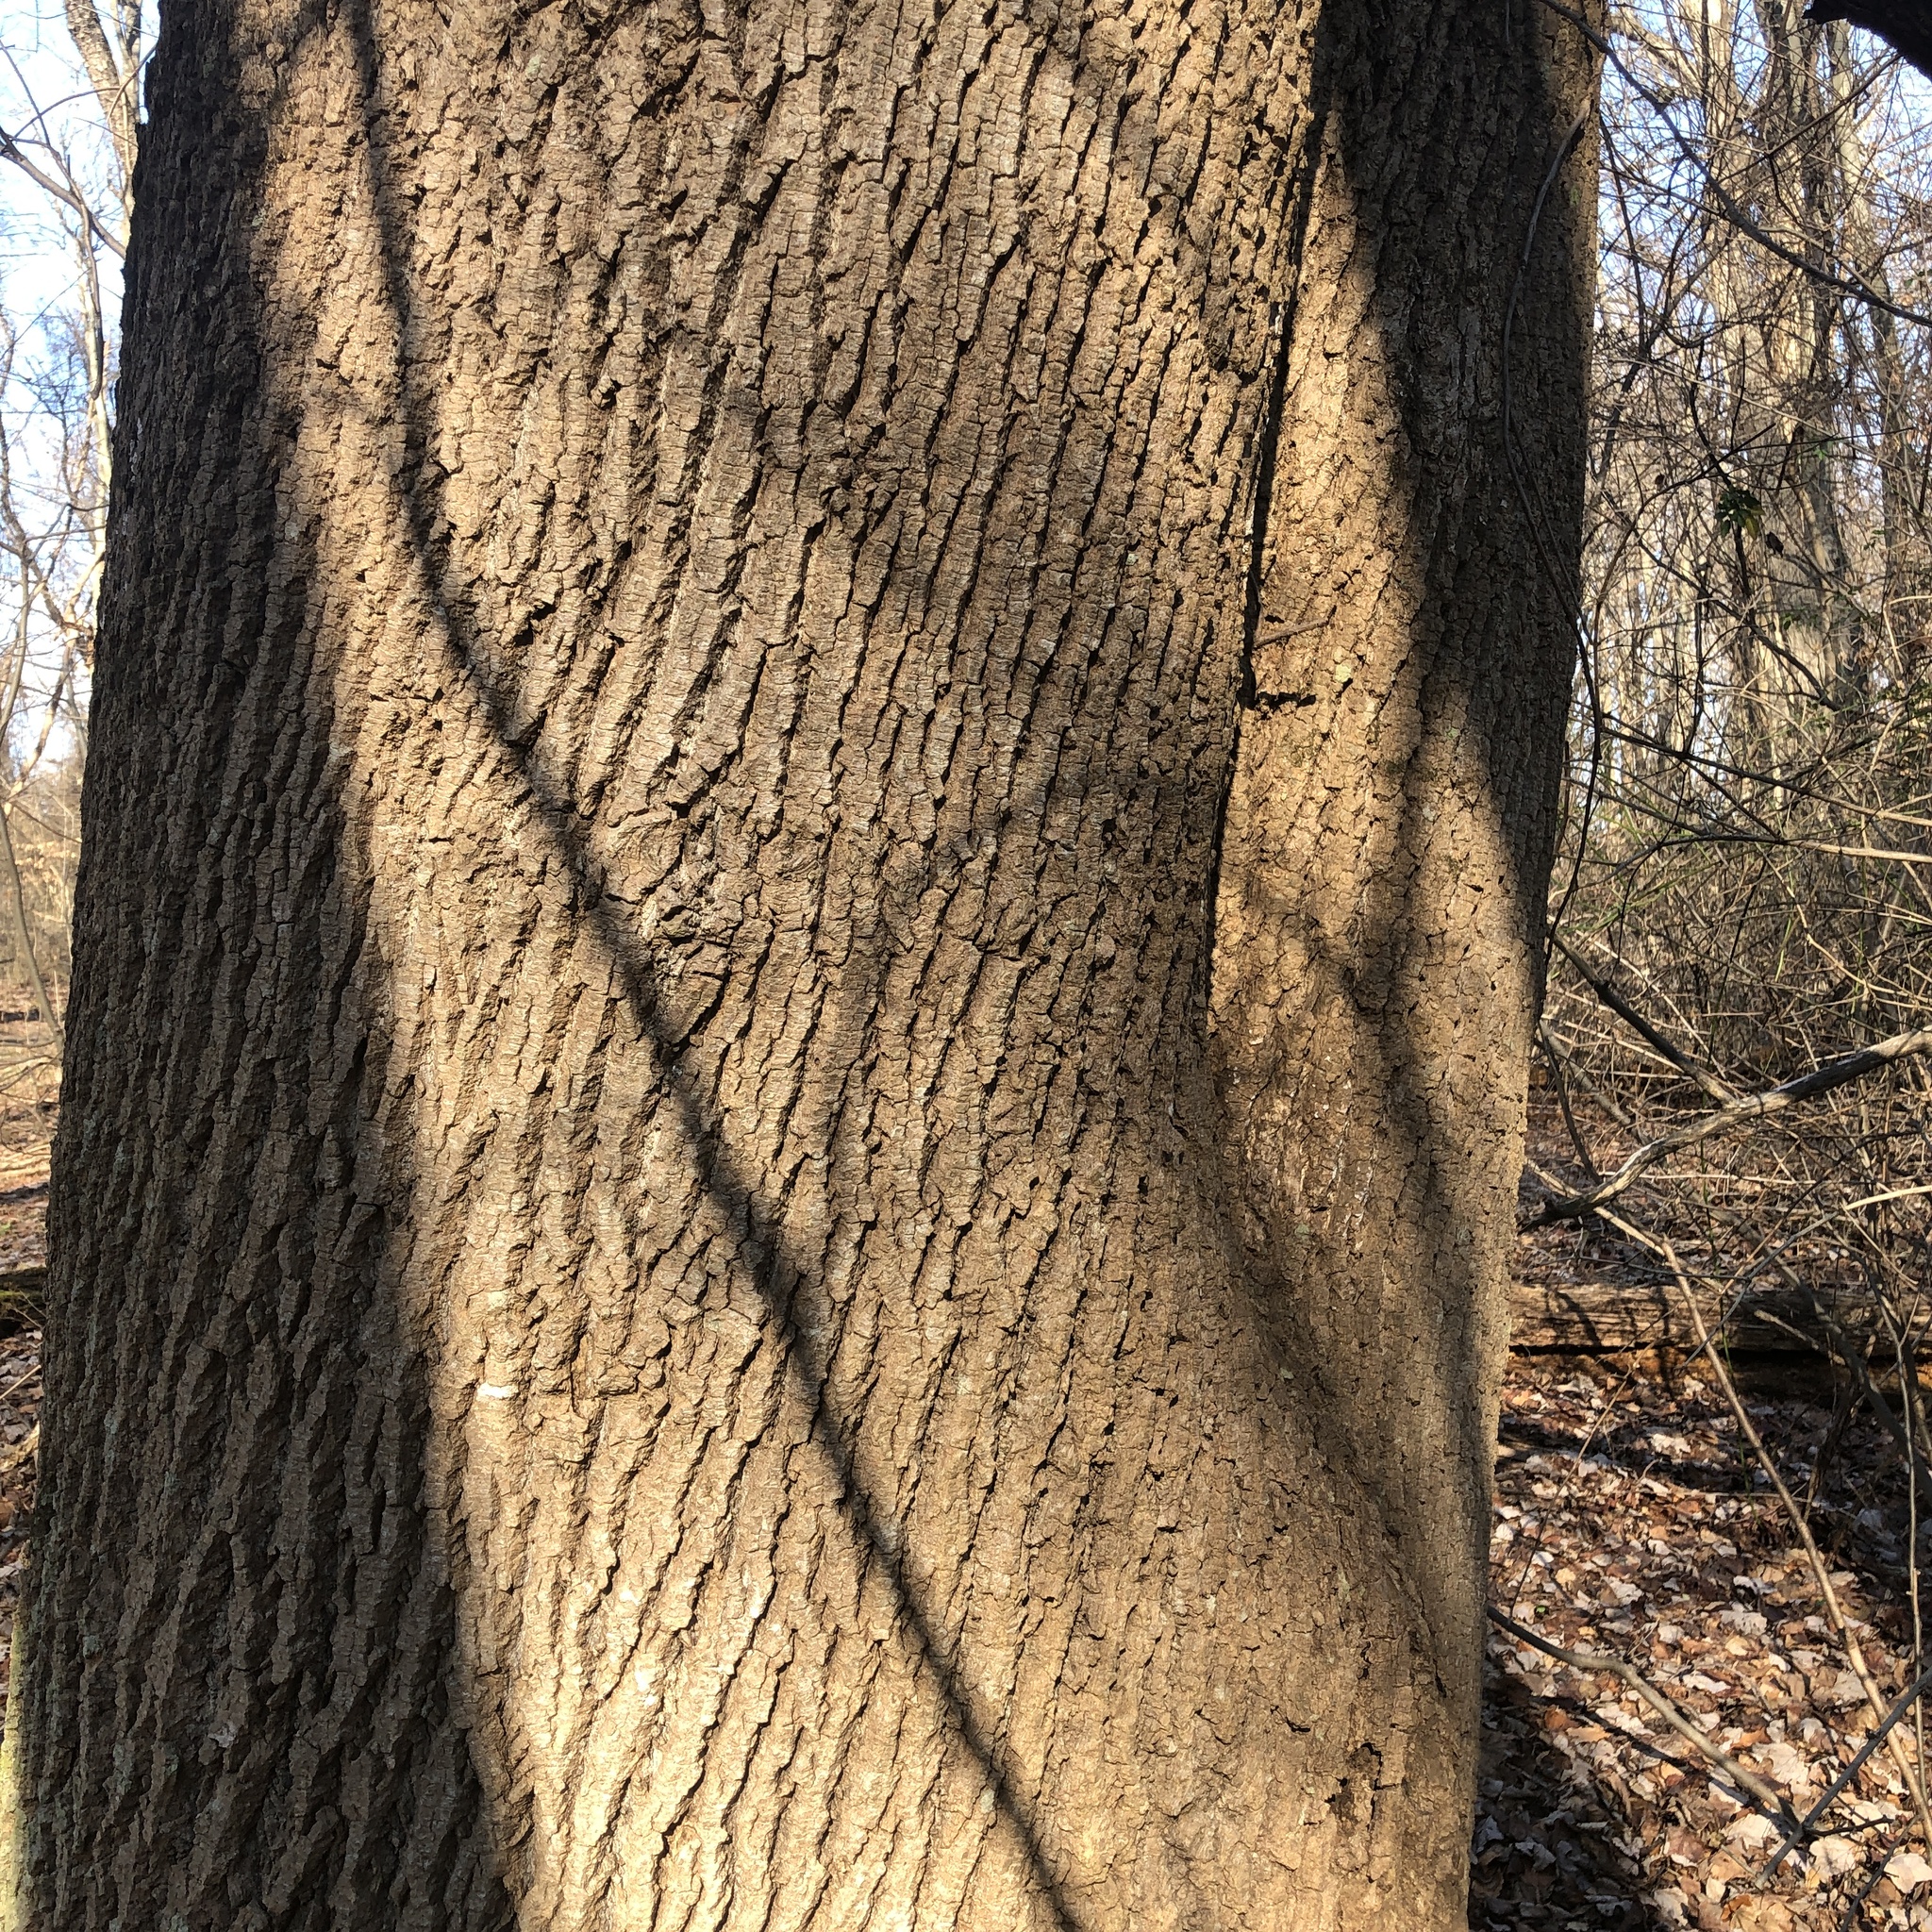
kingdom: Plantae
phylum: Tracheophyta
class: Magnoliopsida
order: Magnoliales
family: Magnoliaceae
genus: Liriodendron
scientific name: Liriodendron tulipifera
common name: Tulip tree
